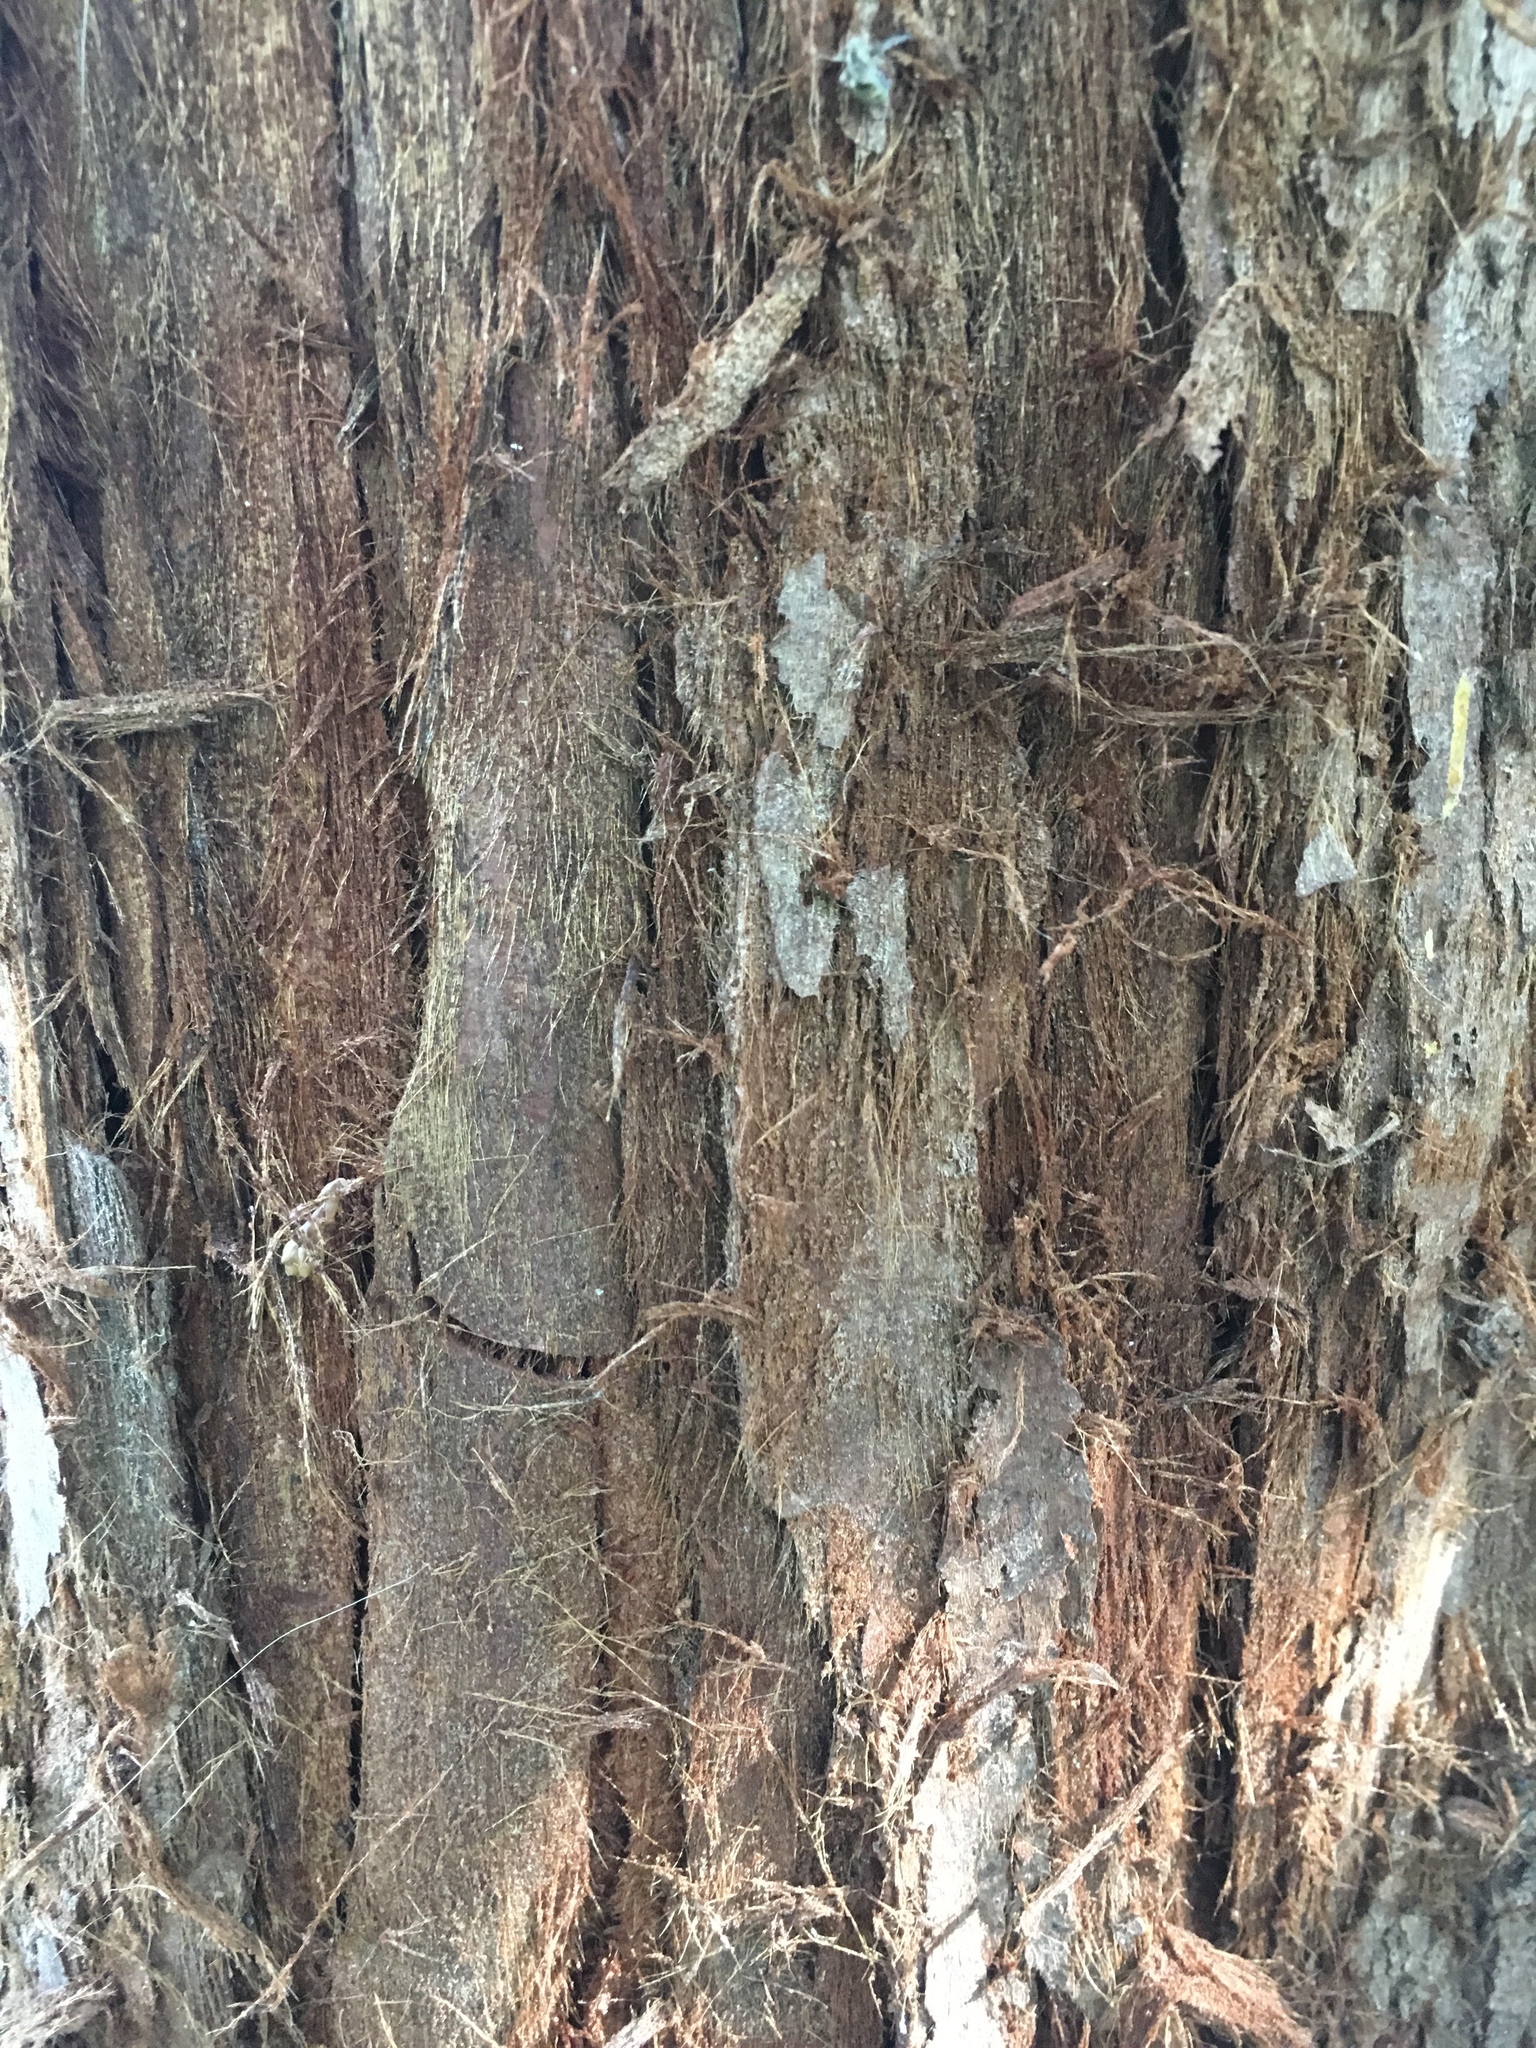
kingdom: Plantae
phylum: Tracheophyta
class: Pinopsida
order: Pinales
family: Cupressaceae
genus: Sequoia
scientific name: Sequoia sempervirens
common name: Coast redwood
